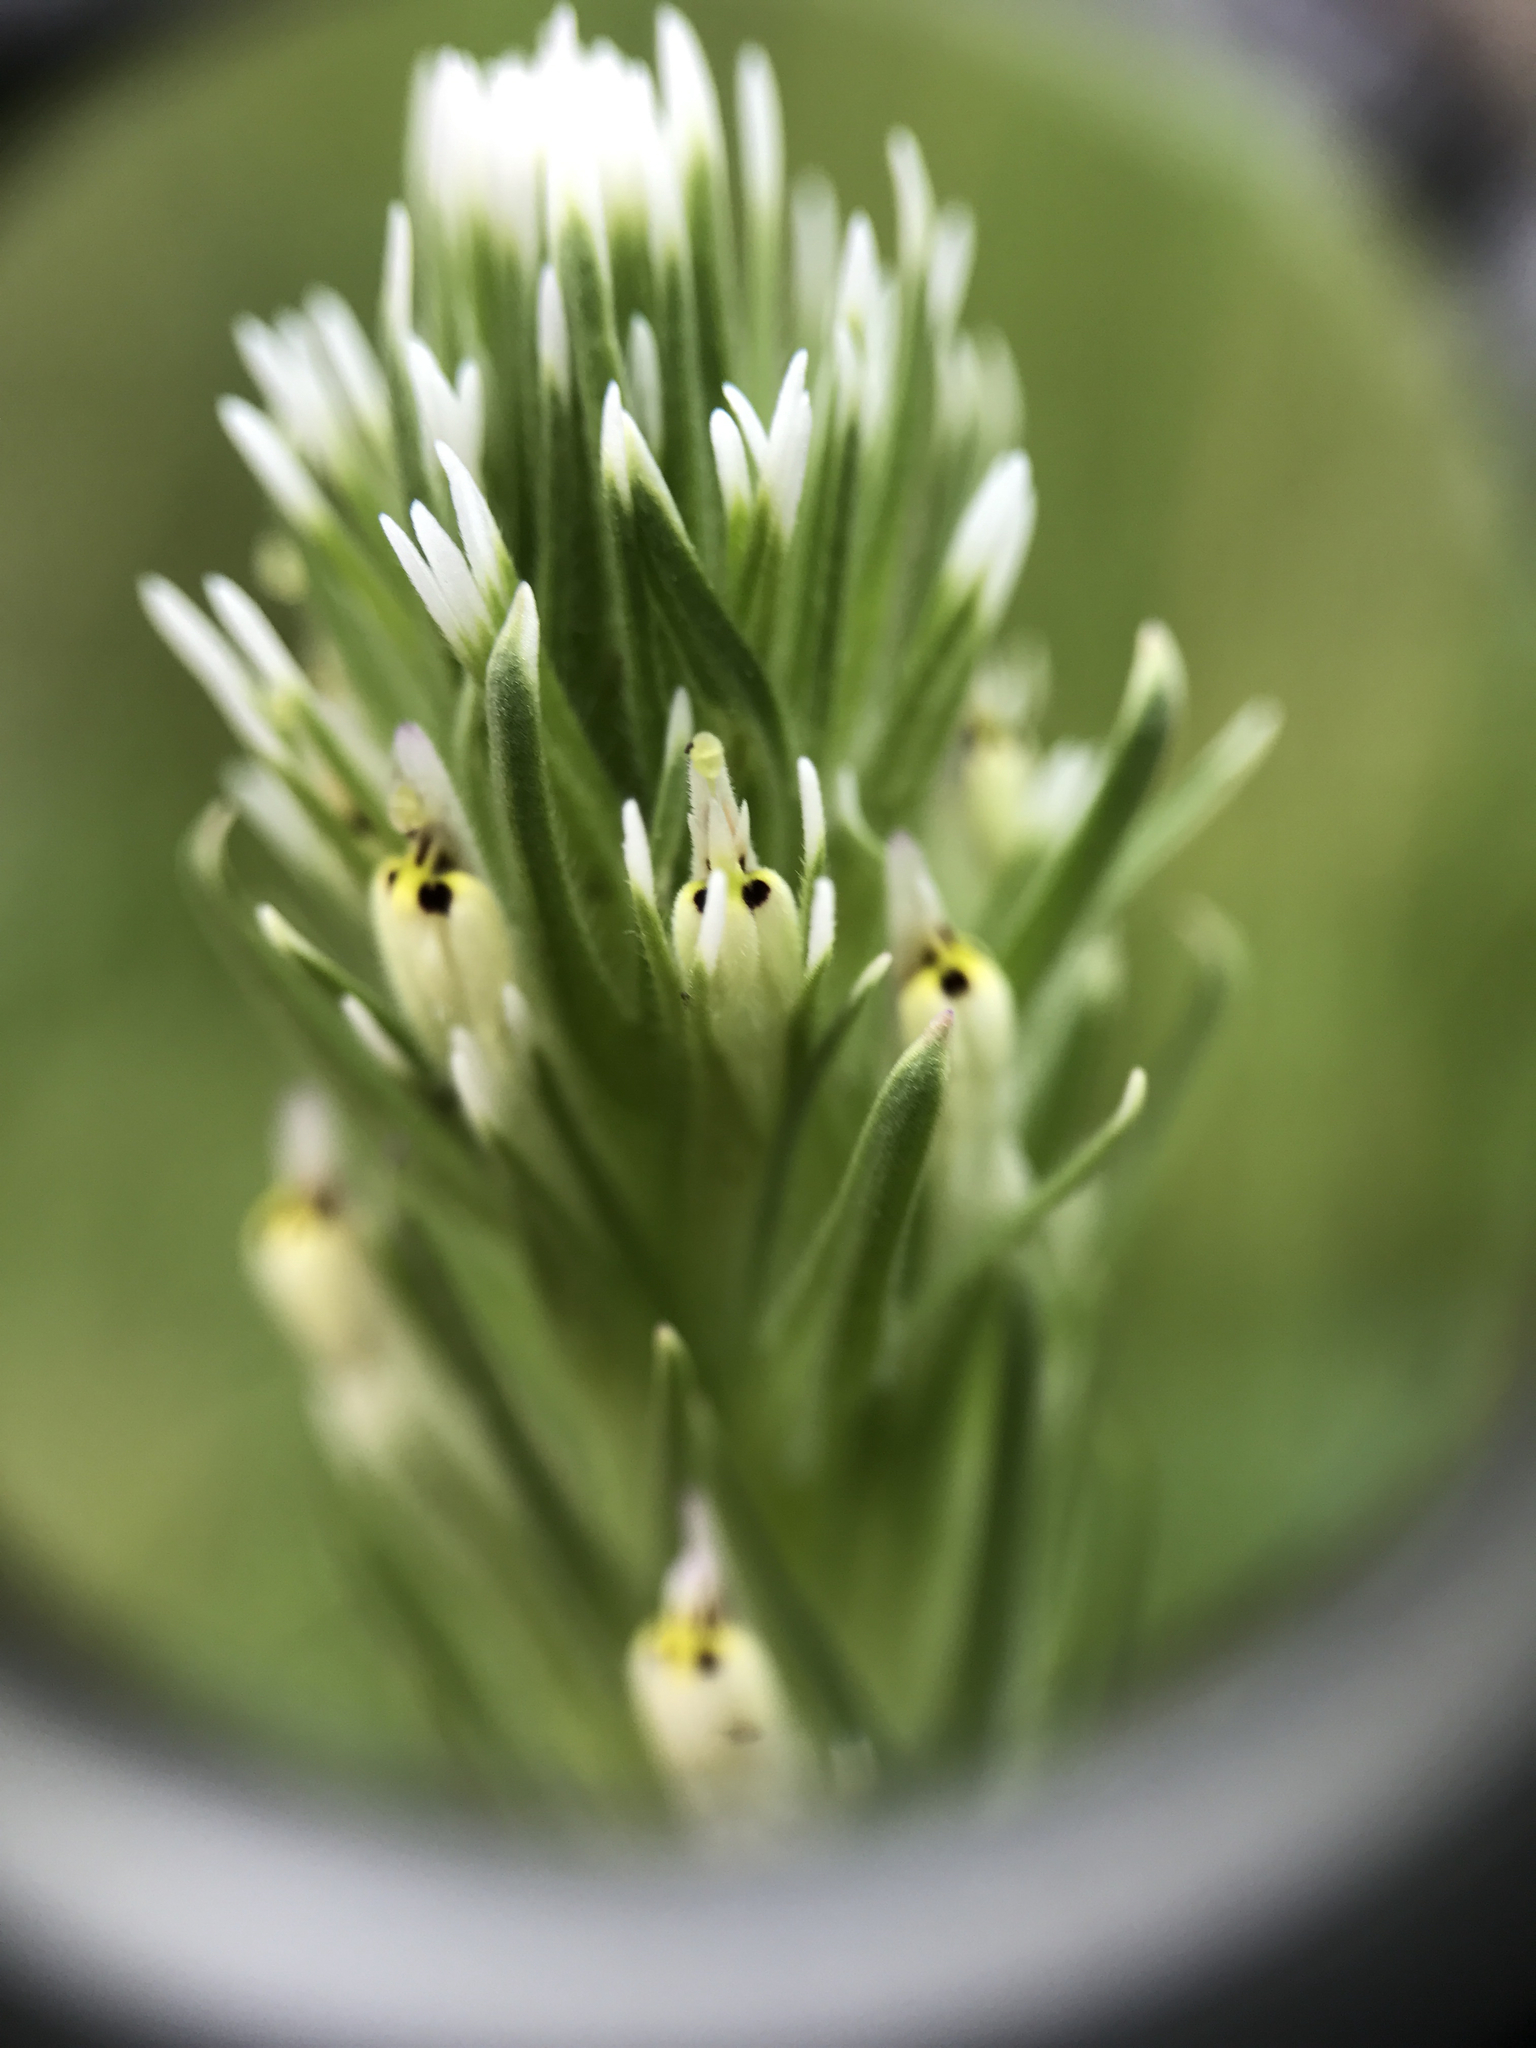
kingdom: Plantae
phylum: Tracheophyta
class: Magnoliopsida
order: Lamiales
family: Orobanchaceae
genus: Castilleja
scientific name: Castilleja attenuata
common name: Valley tassels
